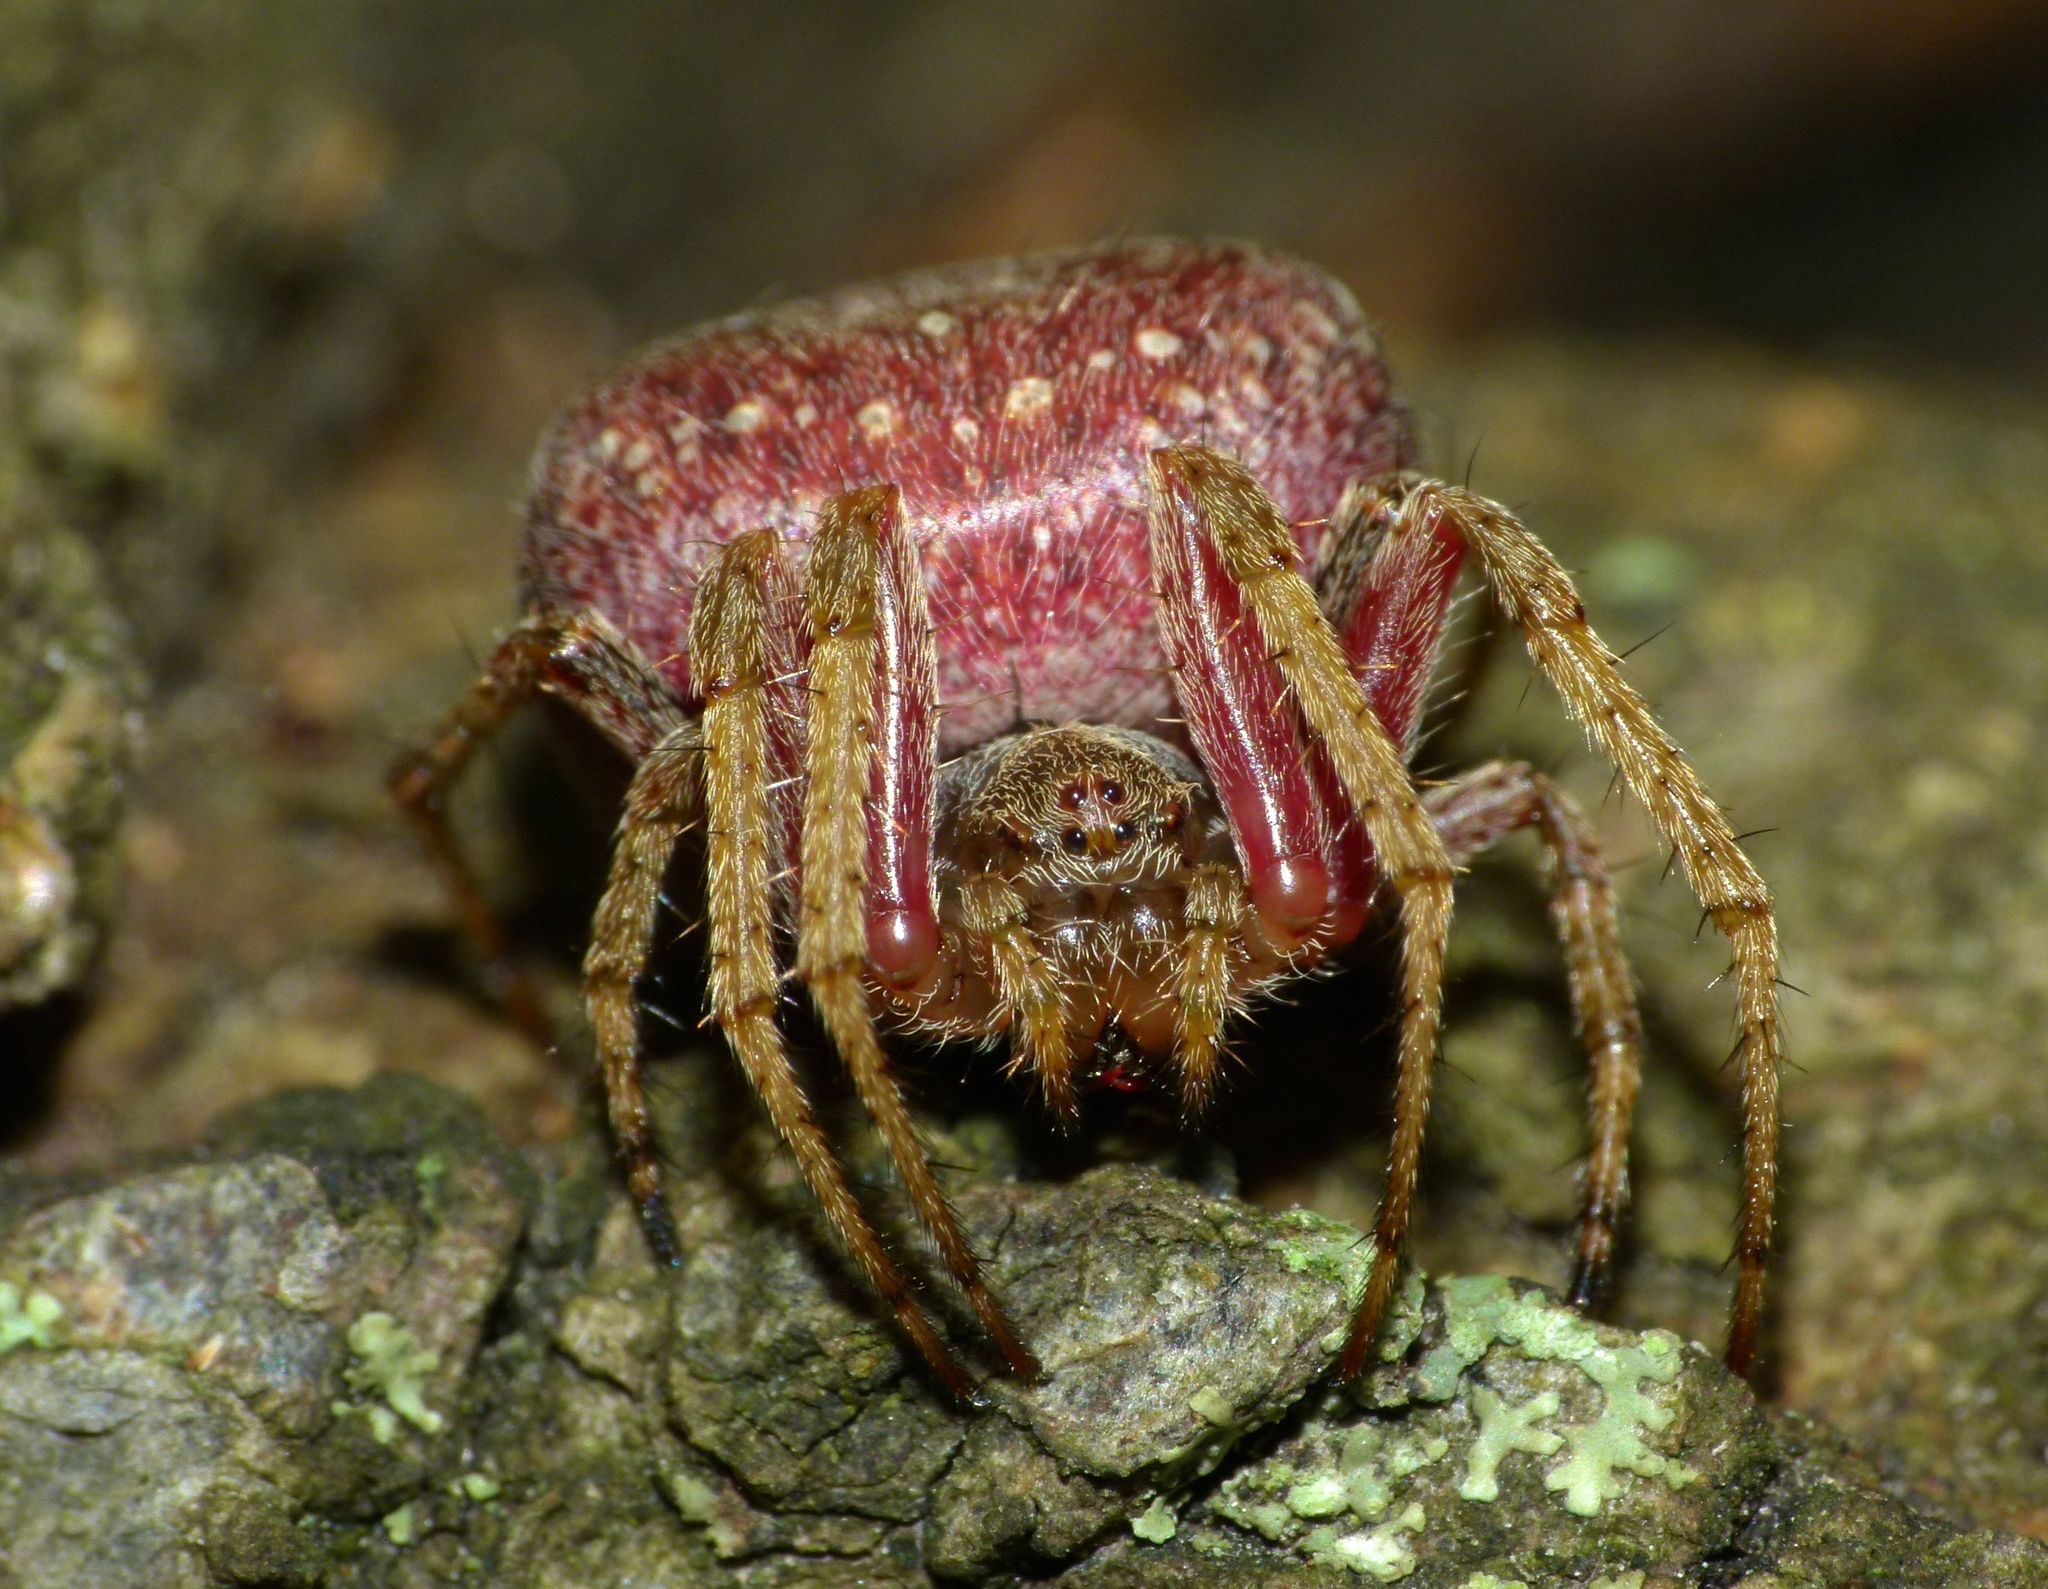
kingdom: Animalia
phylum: Arthropoda
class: Arachnida
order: Araneae
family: Araneidae
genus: Zealaranea
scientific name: Zealaranea prina
